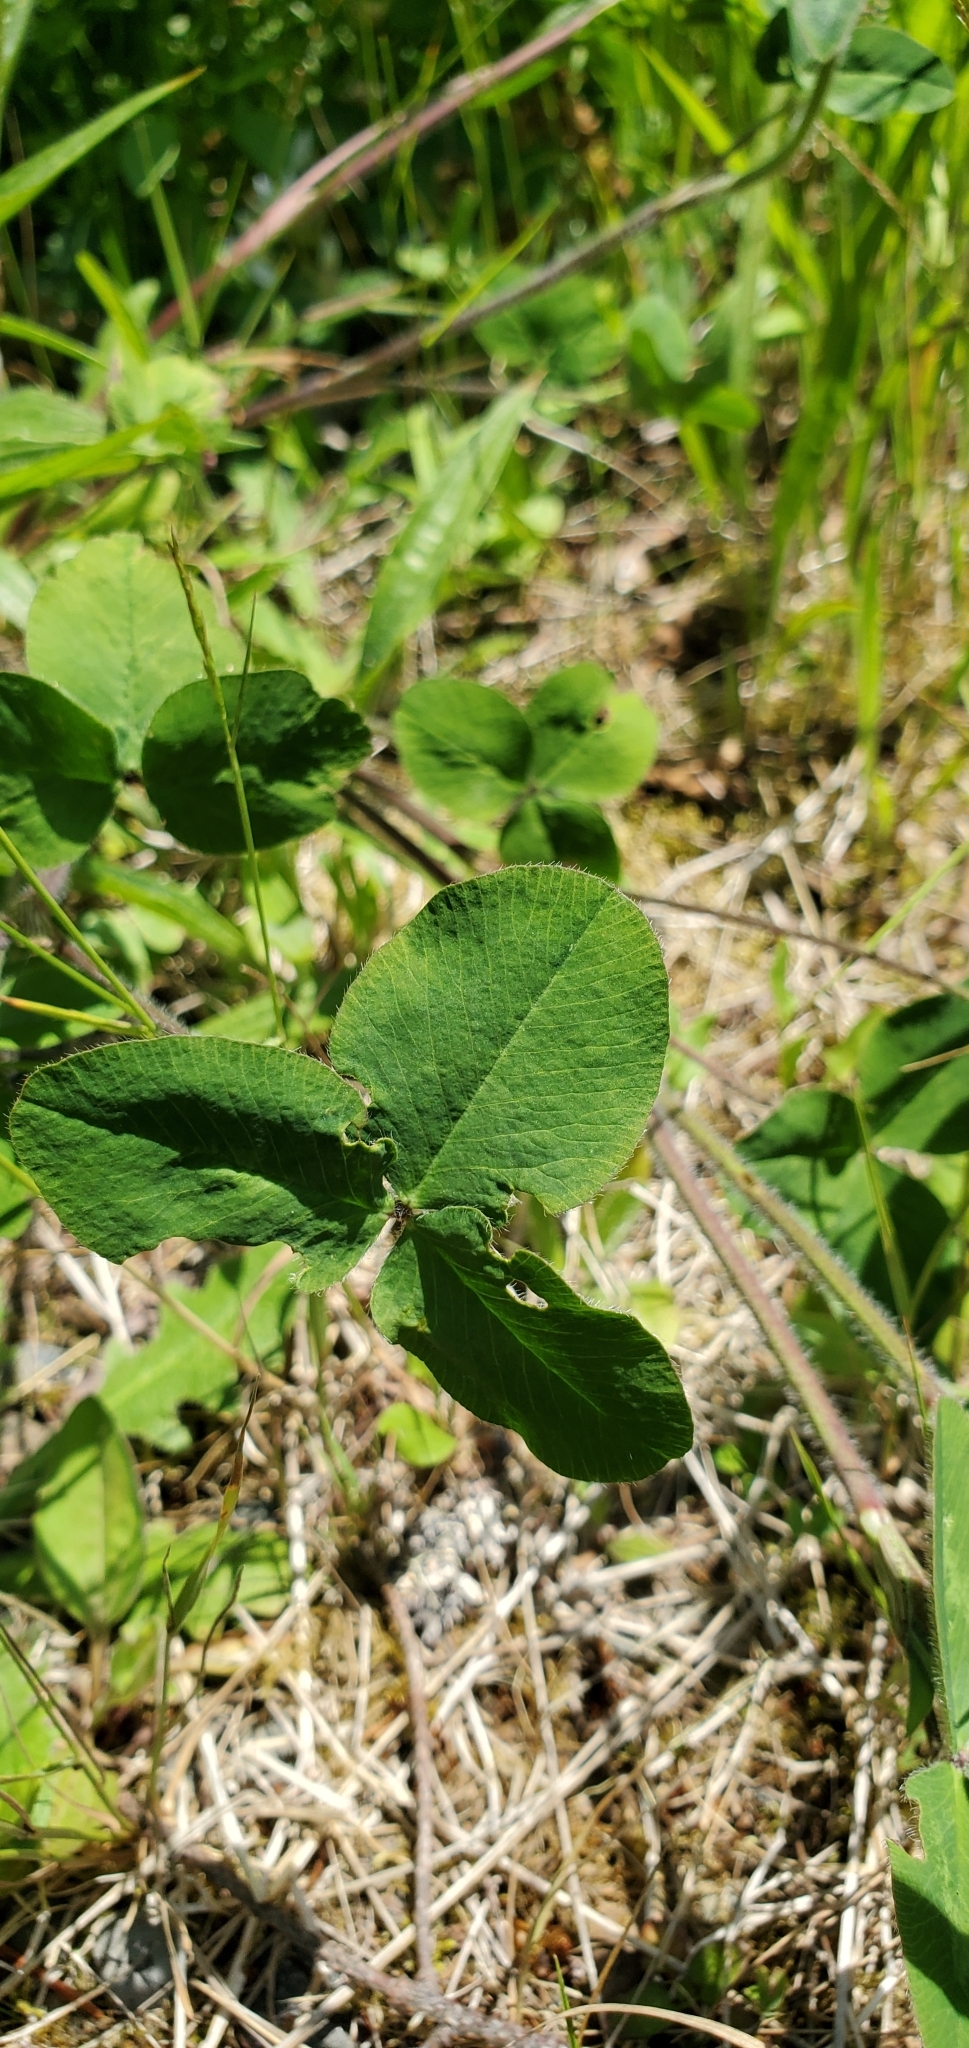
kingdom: Plantae
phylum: Tracheophyta
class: Magnoliopsida
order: Fabales
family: Fabaceae
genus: Trifolium
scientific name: Trifolium pratense
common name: Red clover
